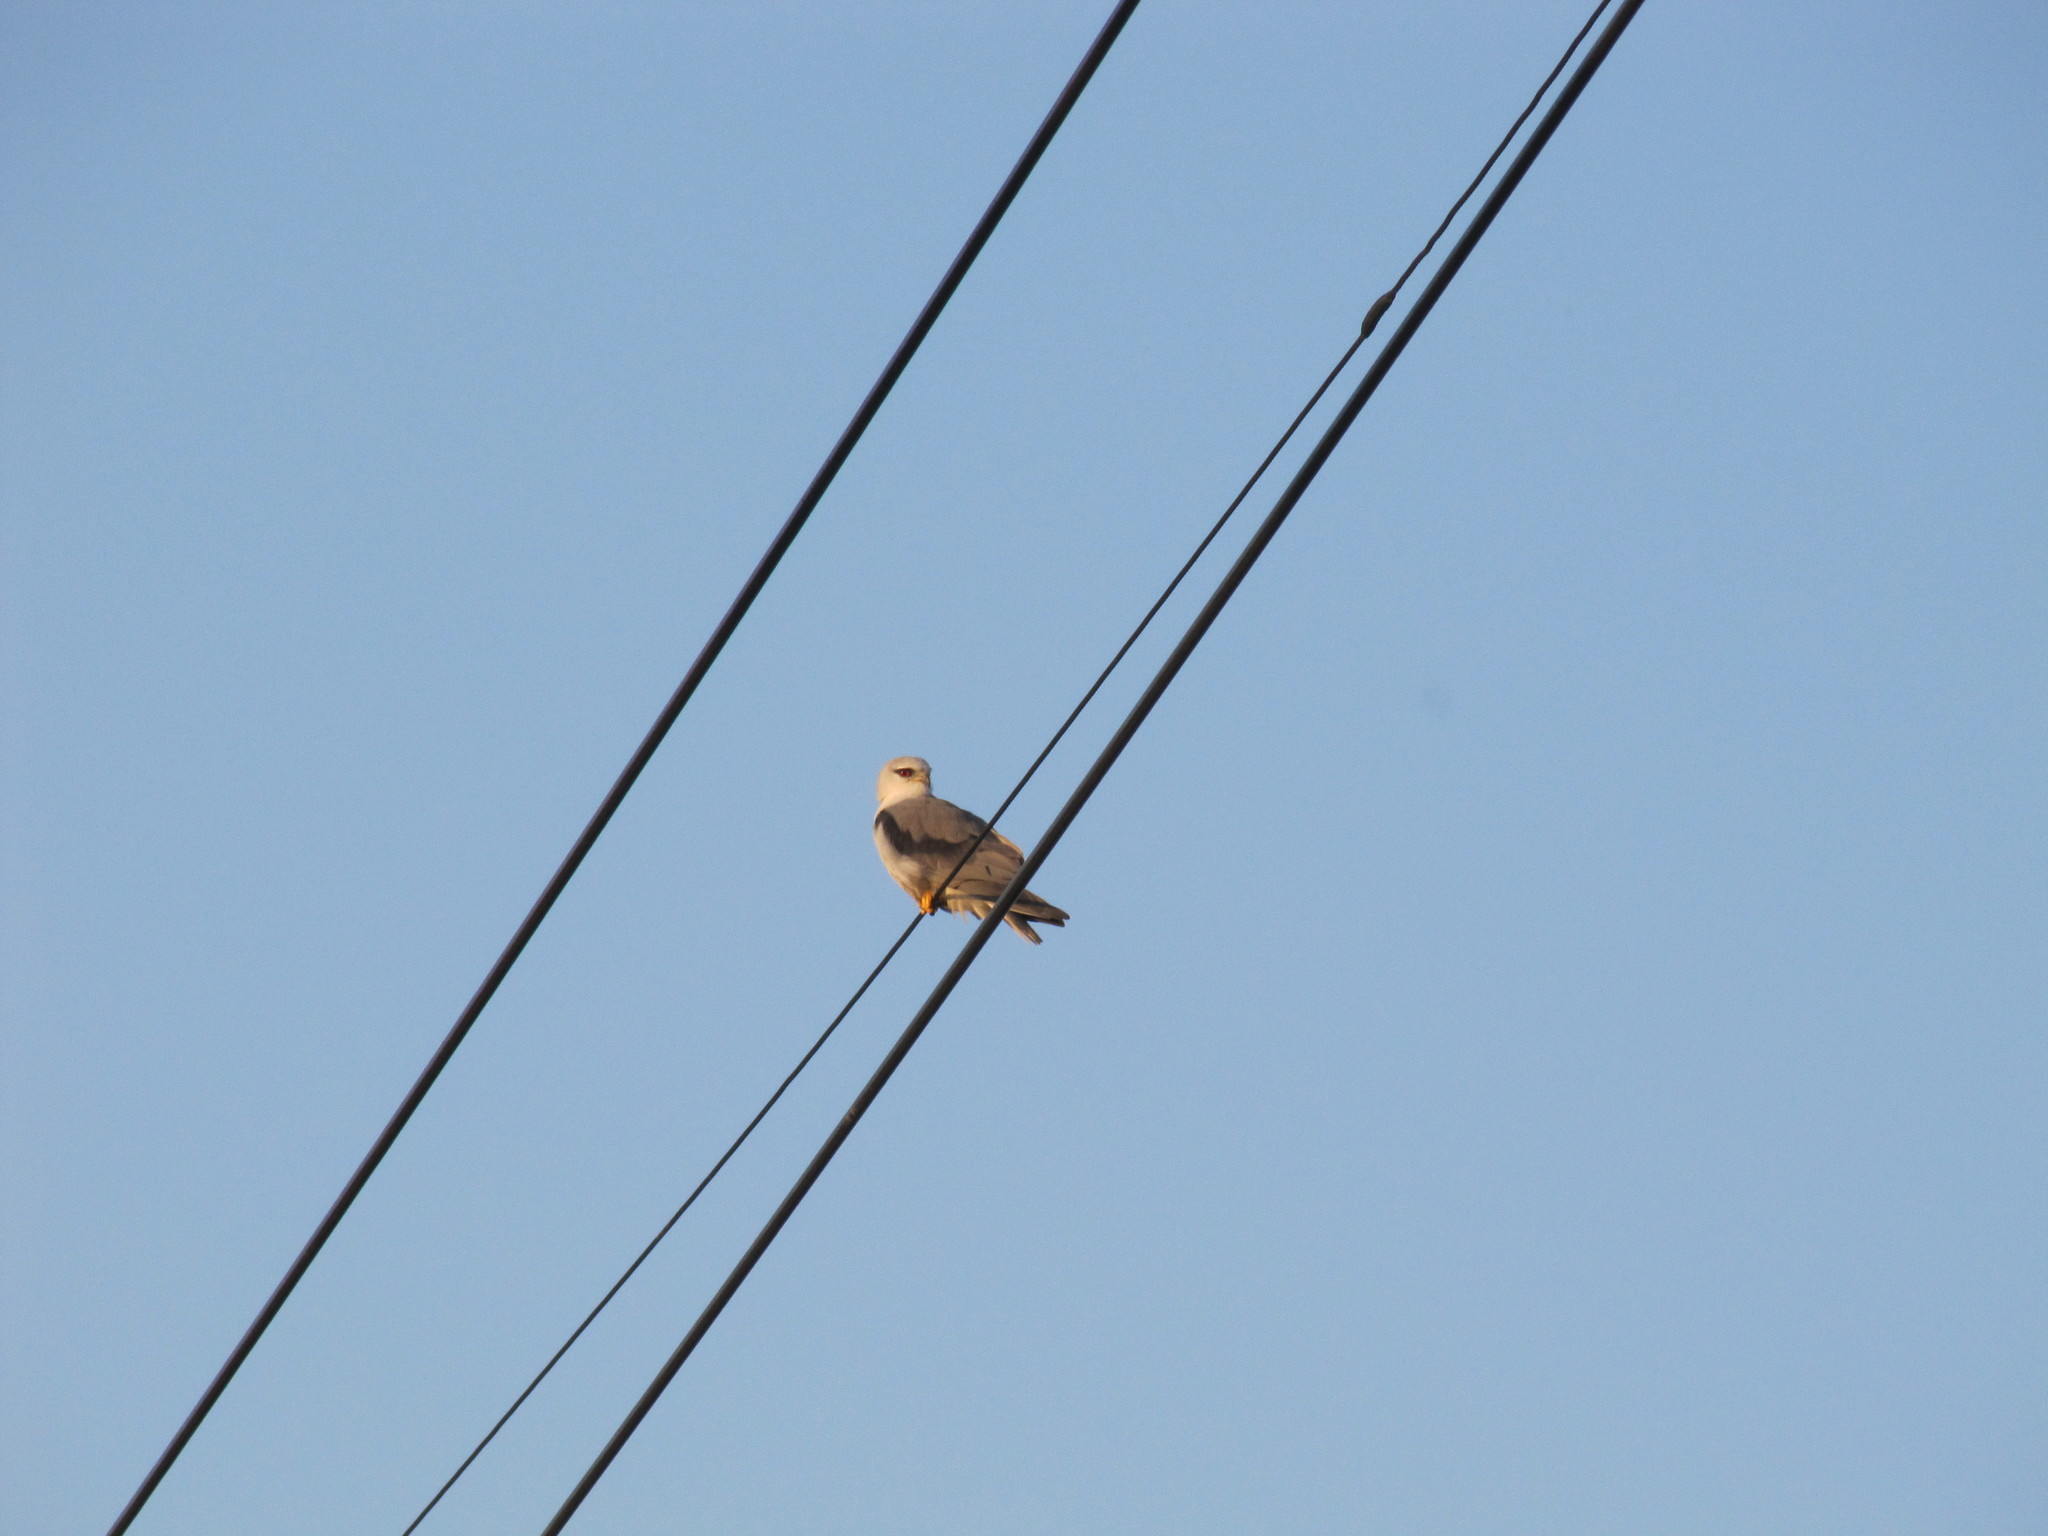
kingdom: Animalia
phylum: Chordata
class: Aves
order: Accipitriformes
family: Accipitridae
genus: Elanus
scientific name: Elanus caeruleus
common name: Black-winged kite
